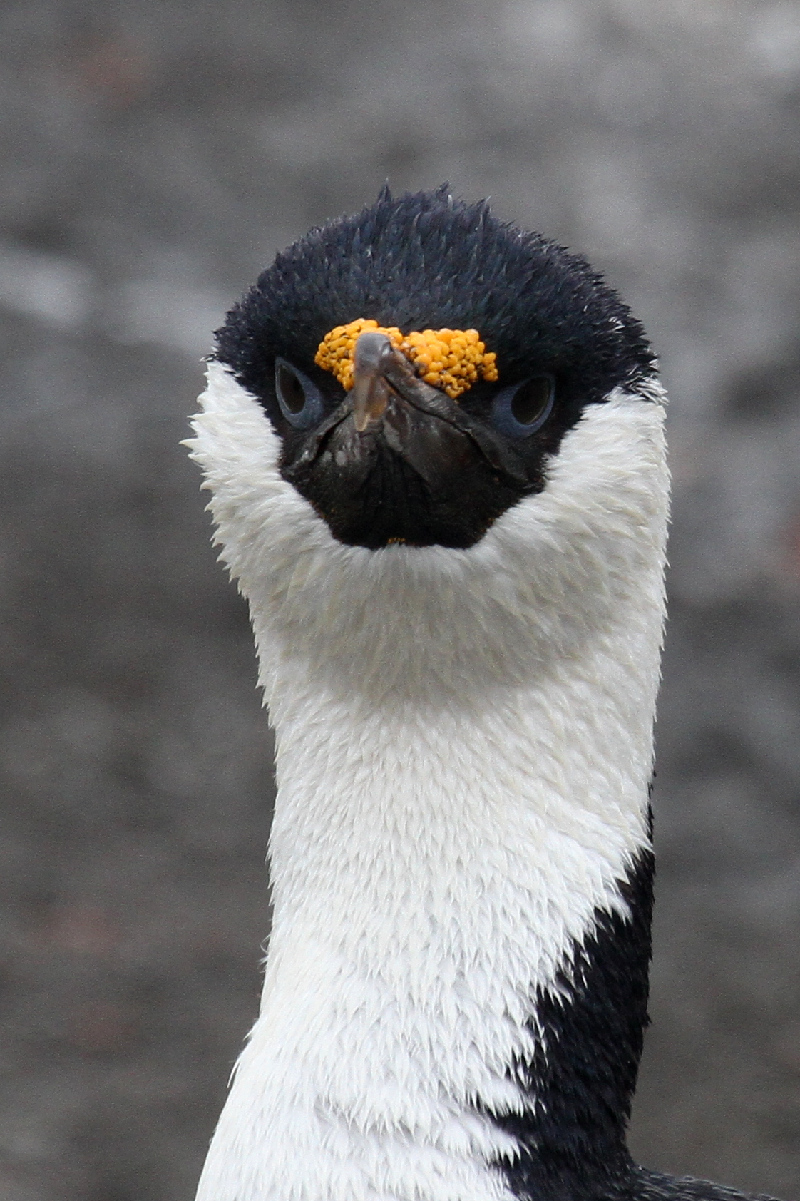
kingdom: Animalia
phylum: Chordata
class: Aves
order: Suliformes
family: Phalacrocoracidae
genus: Leucocarbo
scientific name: Leucocarbo atriceps
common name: Imperial shag
